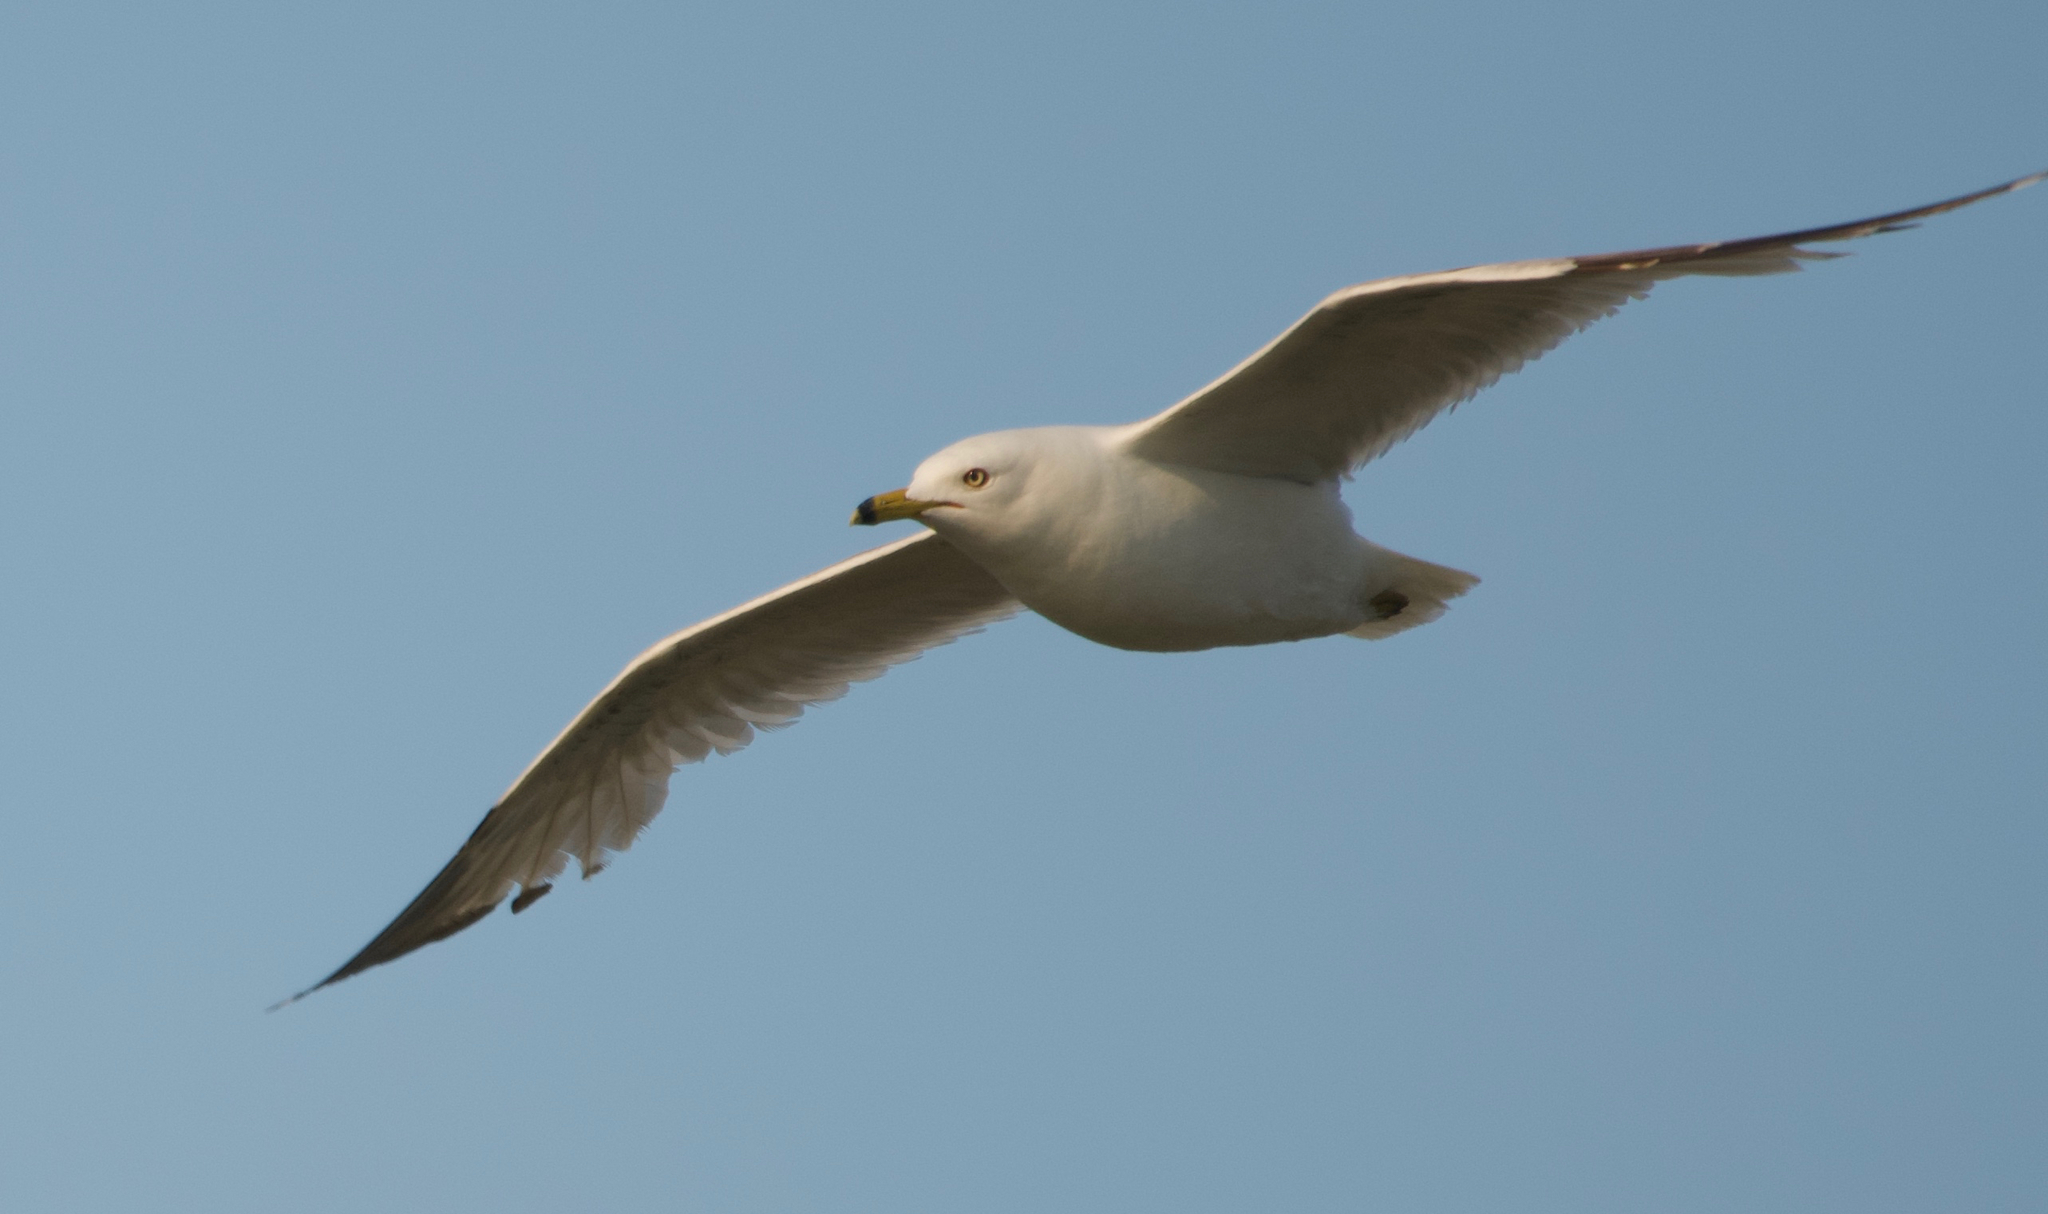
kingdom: Animalia
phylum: Chordata
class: Aves
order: Charadriiformes
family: Laridae
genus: Larus
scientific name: Larus delawarensis
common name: Ring-billed gull
